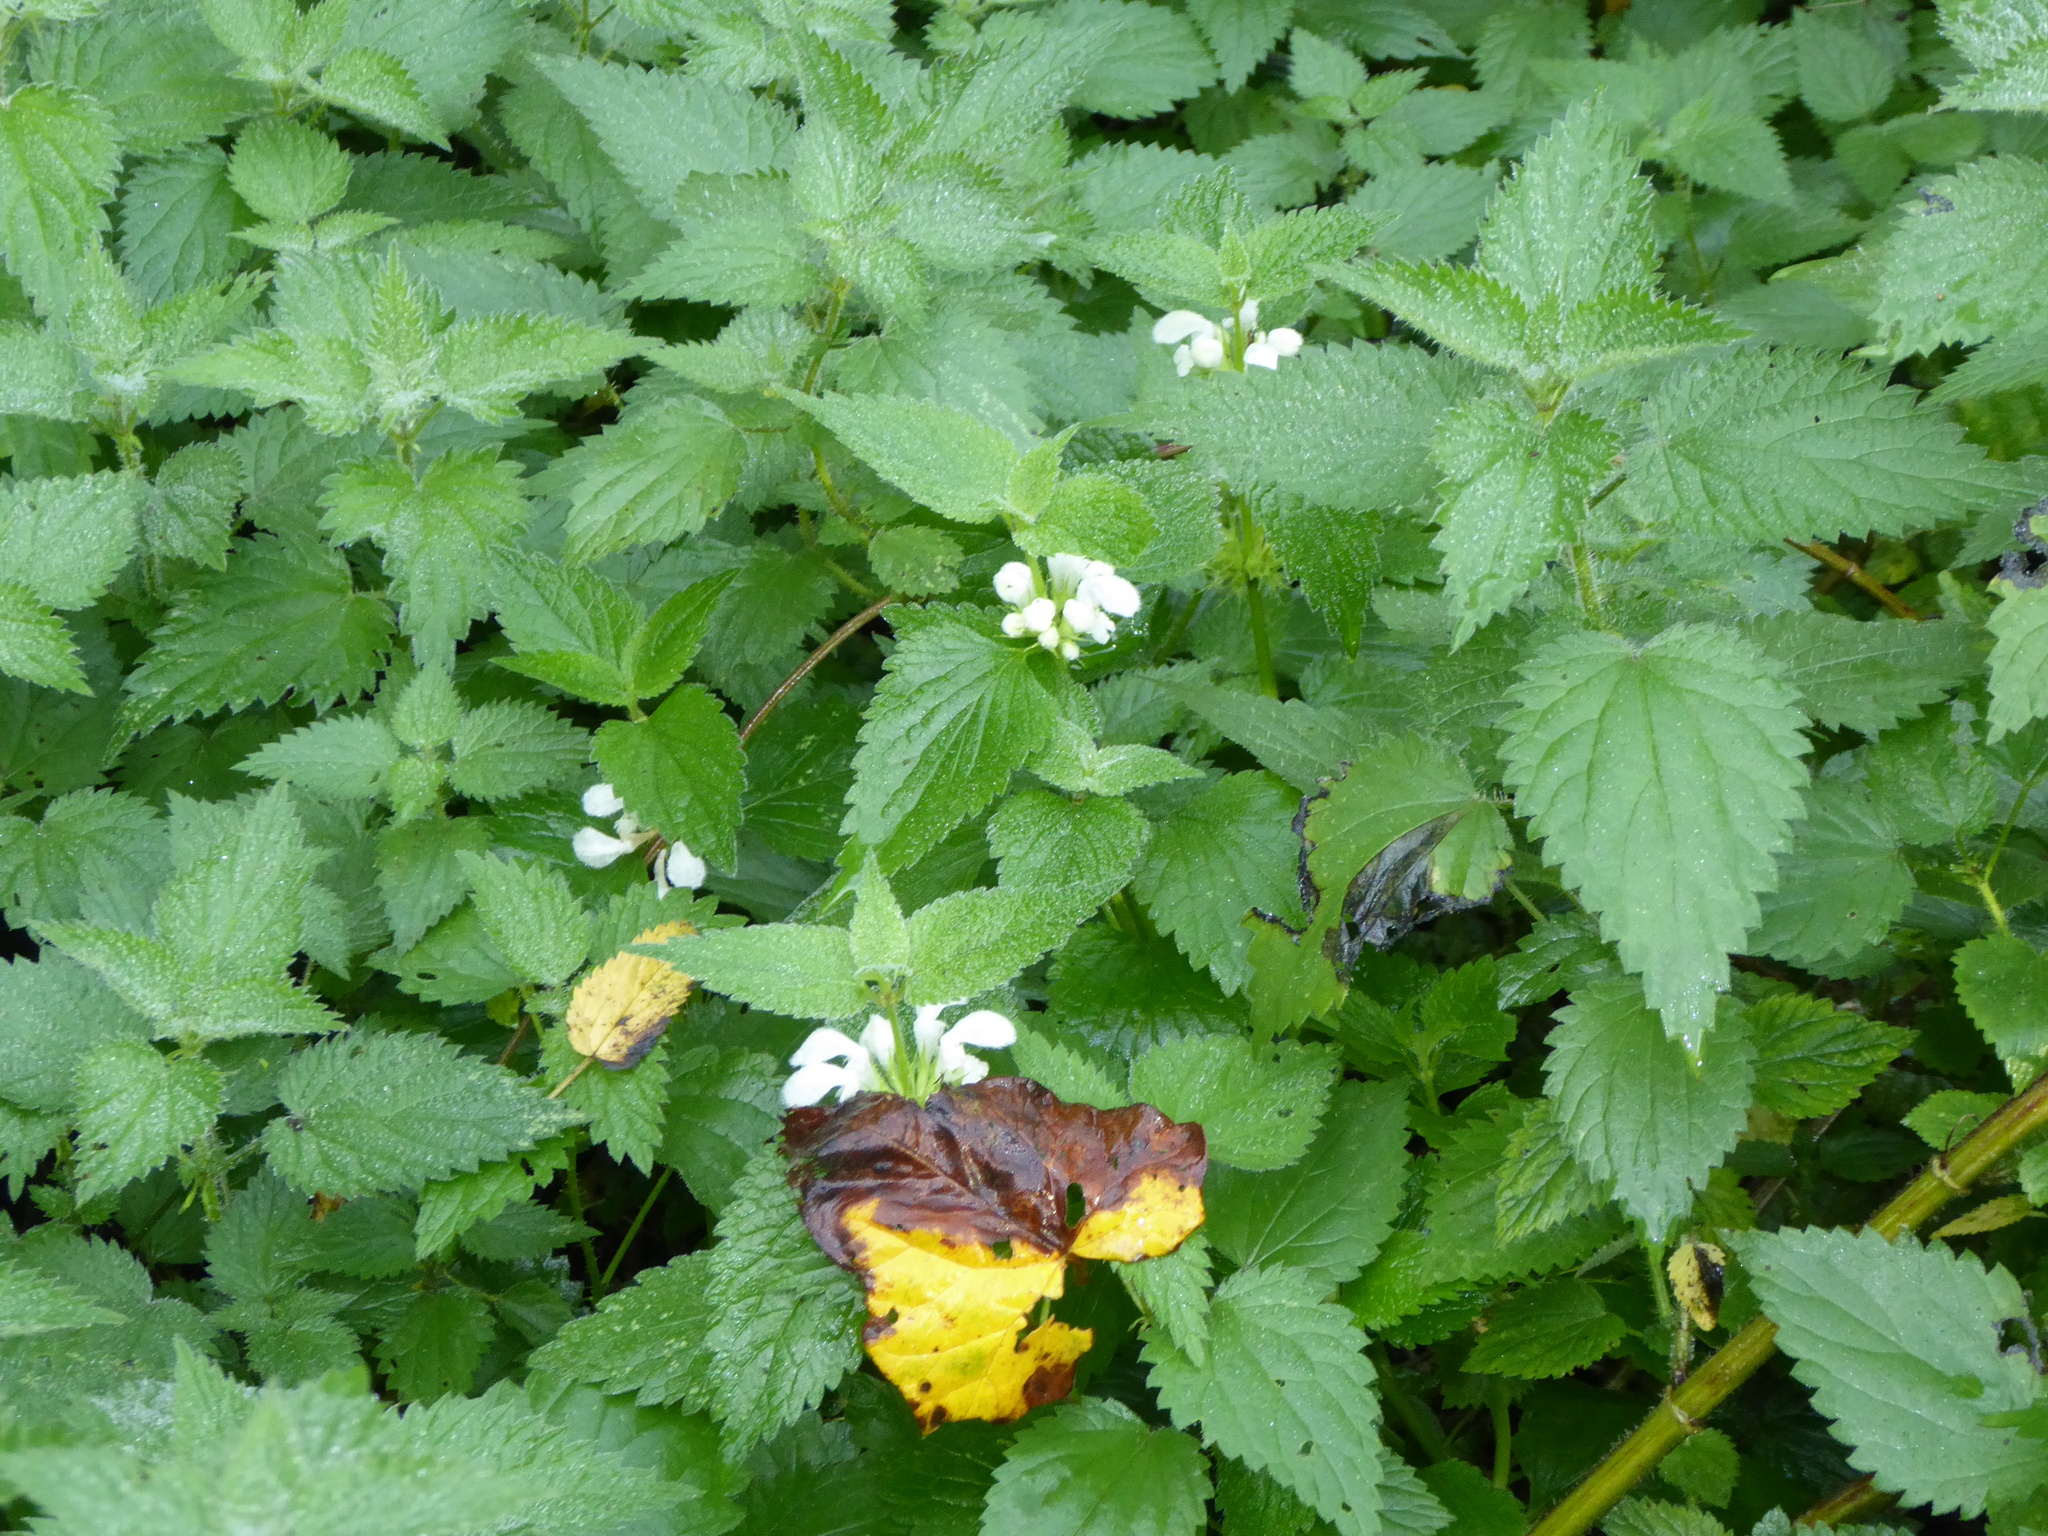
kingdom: Plantae
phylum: Tracheophyta
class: Magnoliopsida
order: Lamiales
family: Lamiaceae
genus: Lamium
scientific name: Lamium album
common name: White dead-nettle
